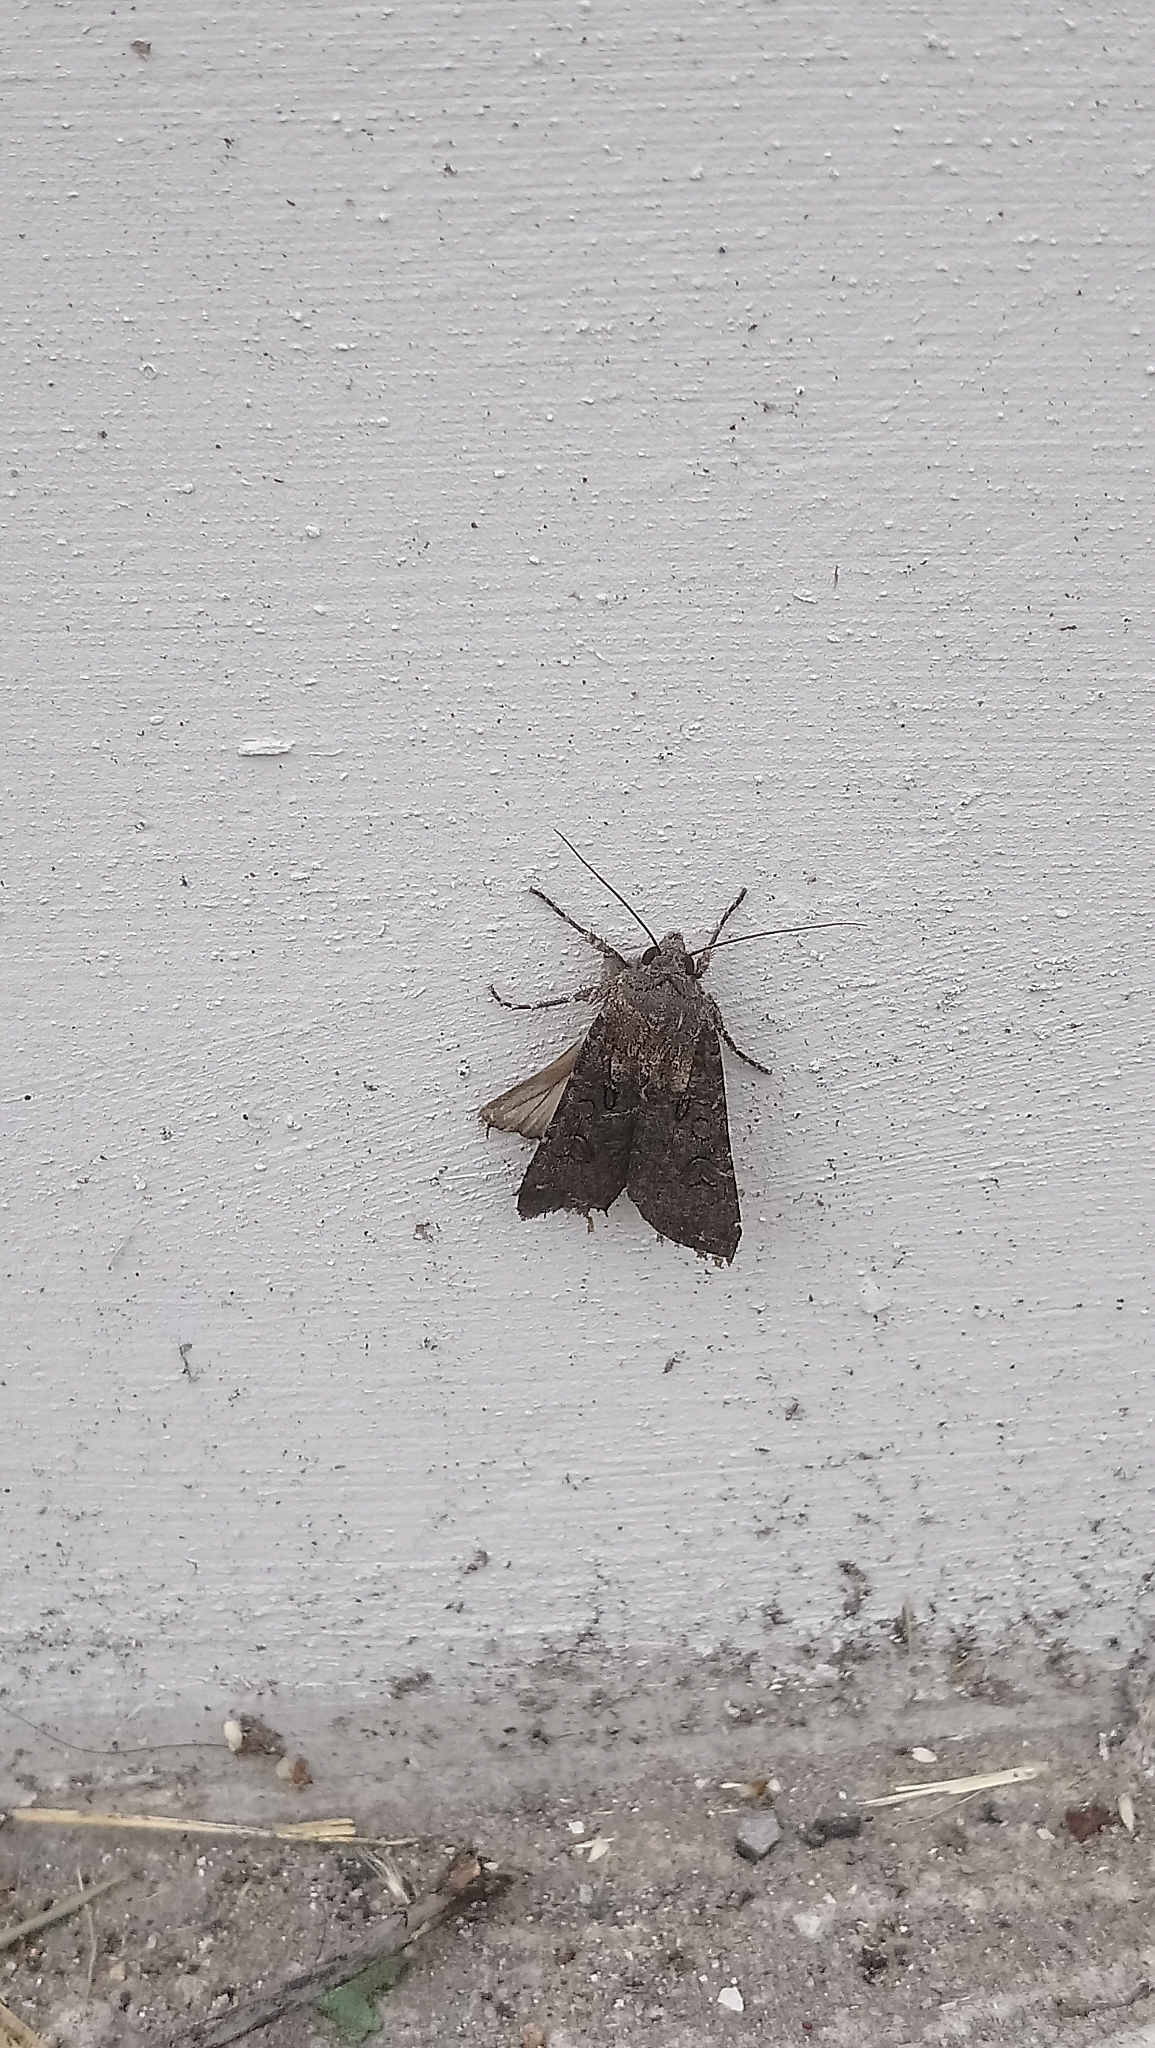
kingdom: Animalia
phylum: Arthropoda
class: Insecta
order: Lepidoptera
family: Noctuidae
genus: Agrotis
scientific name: Agrotis segetum
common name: Turnip moth
